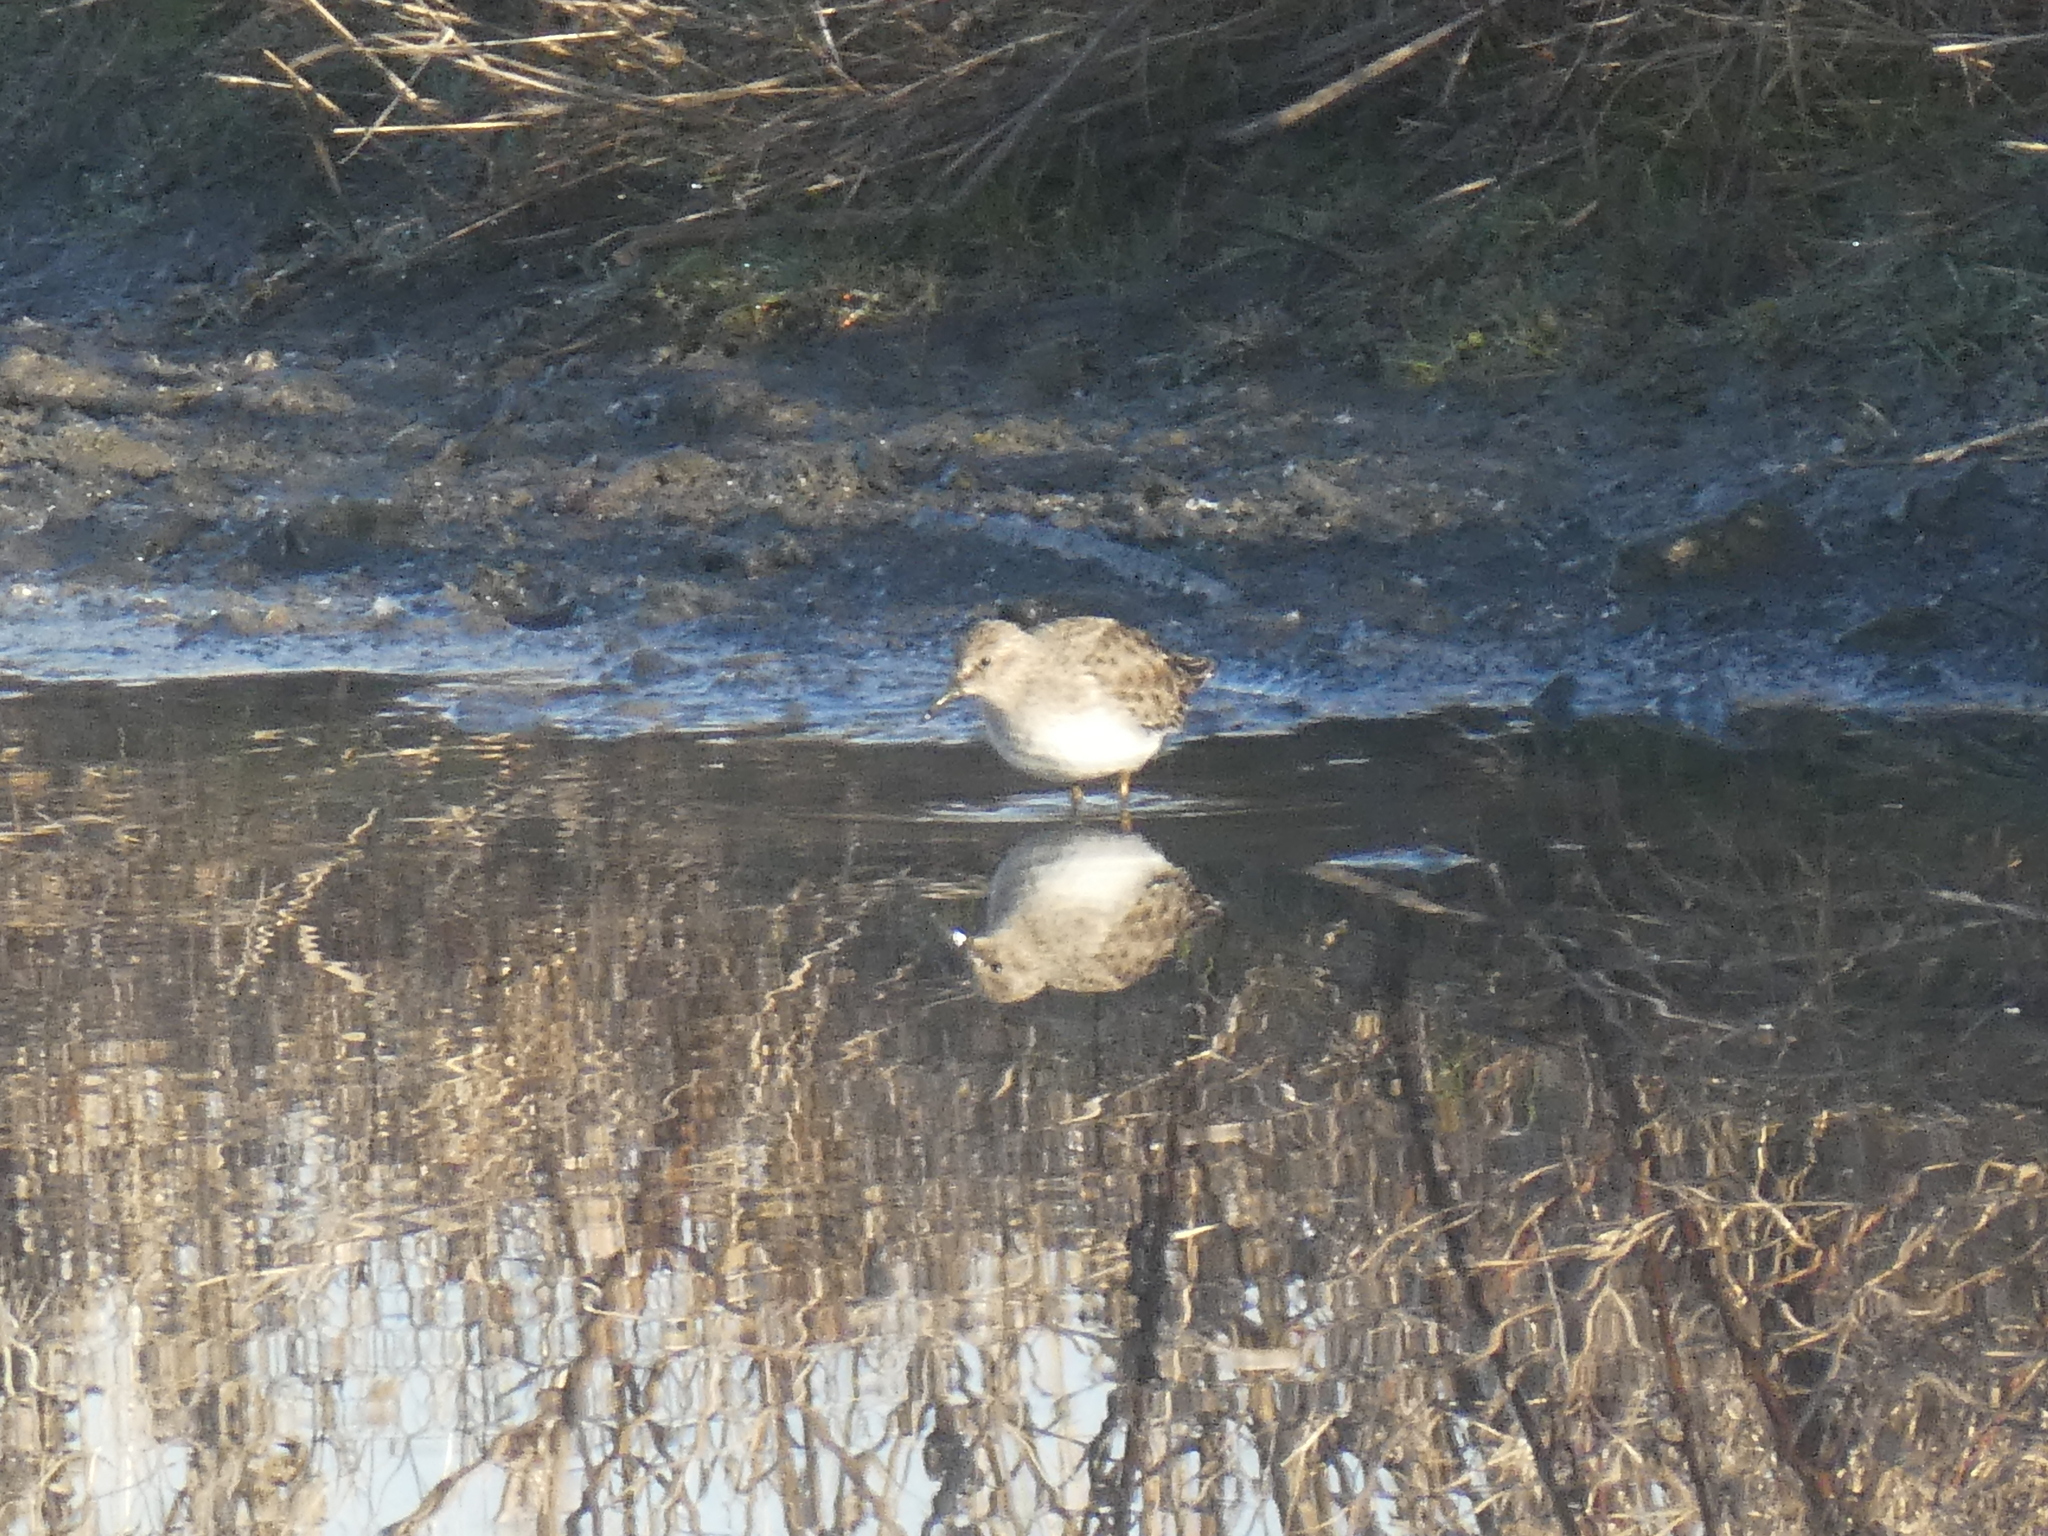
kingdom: Animalia
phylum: Chordata
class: Aves
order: Charadriiformes
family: Scolopacidae
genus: Calidris
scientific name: Calidris minutilla
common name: Least sandpiper
